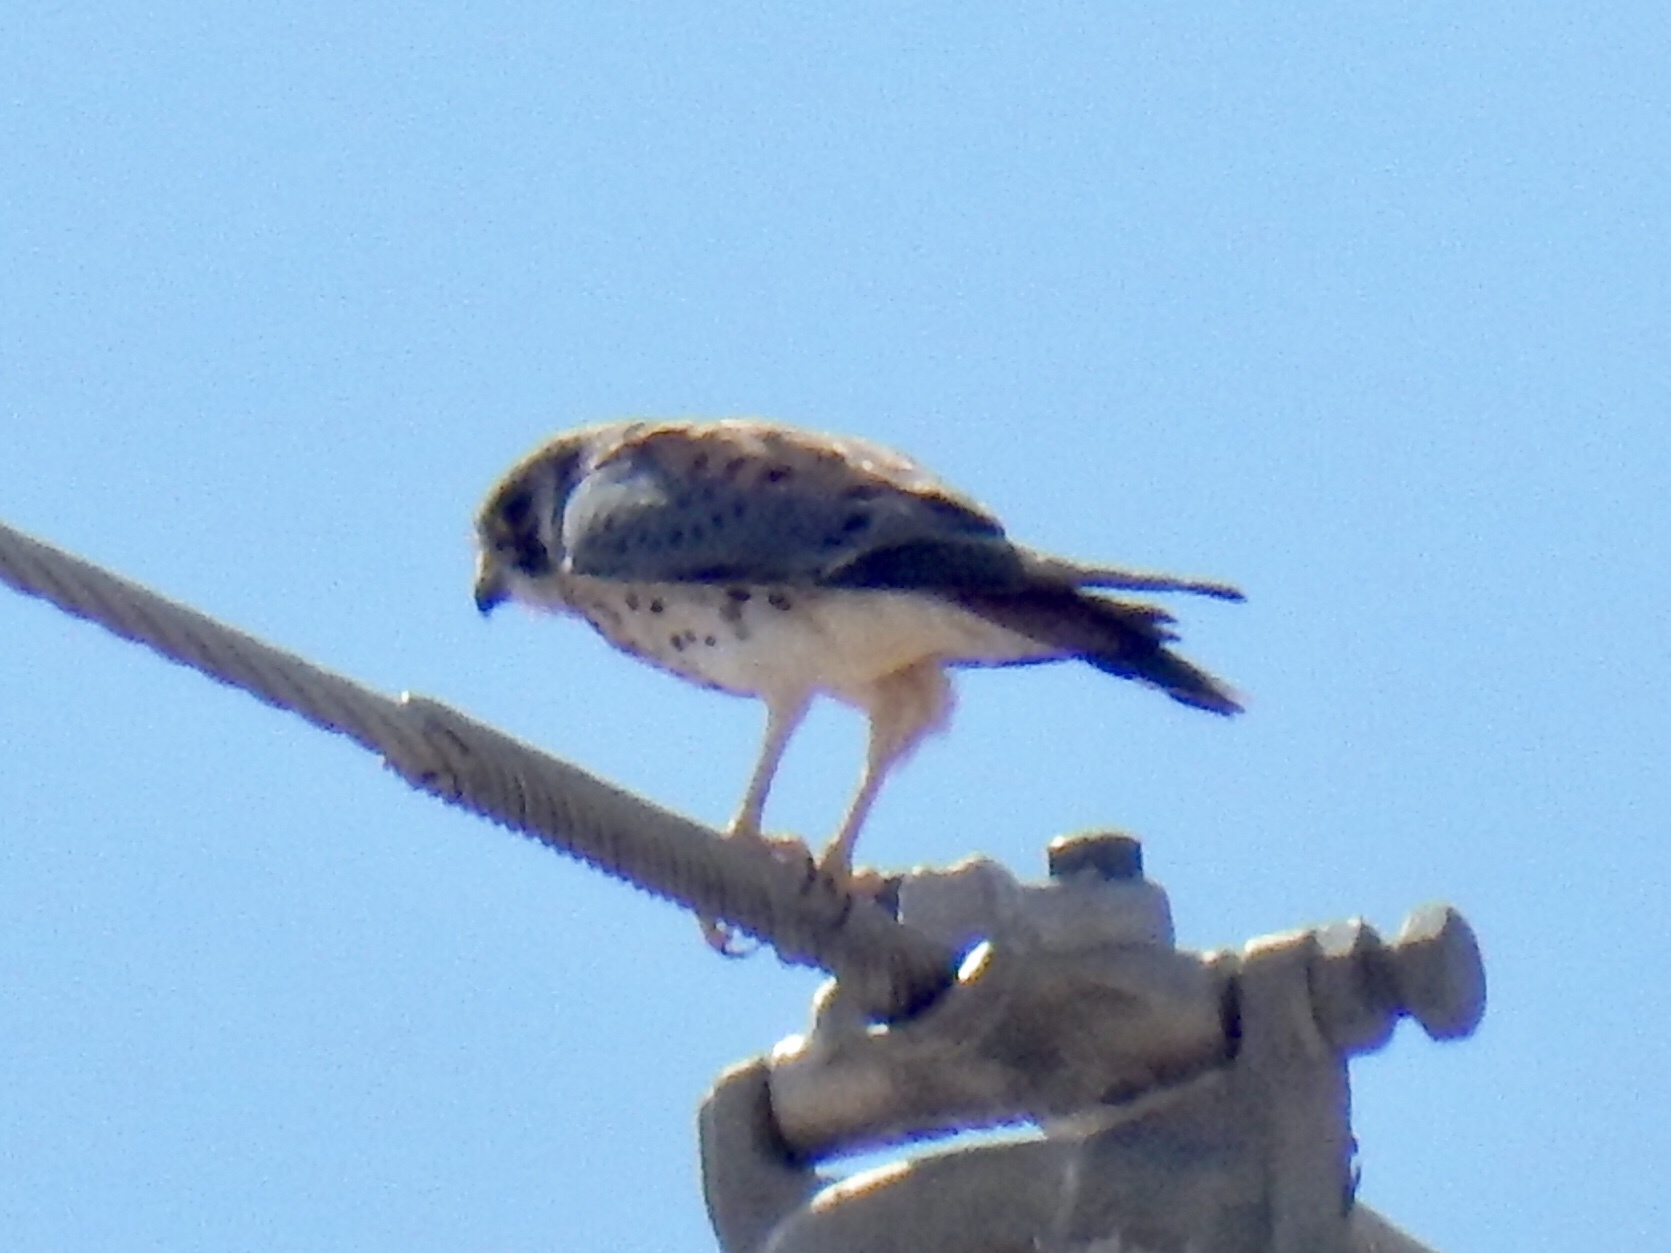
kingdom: Animalia
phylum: Chordata
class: Aves
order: Falconiformes
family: Falconidae
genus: Falco
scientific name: Falco sparverius
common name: American kestrel
